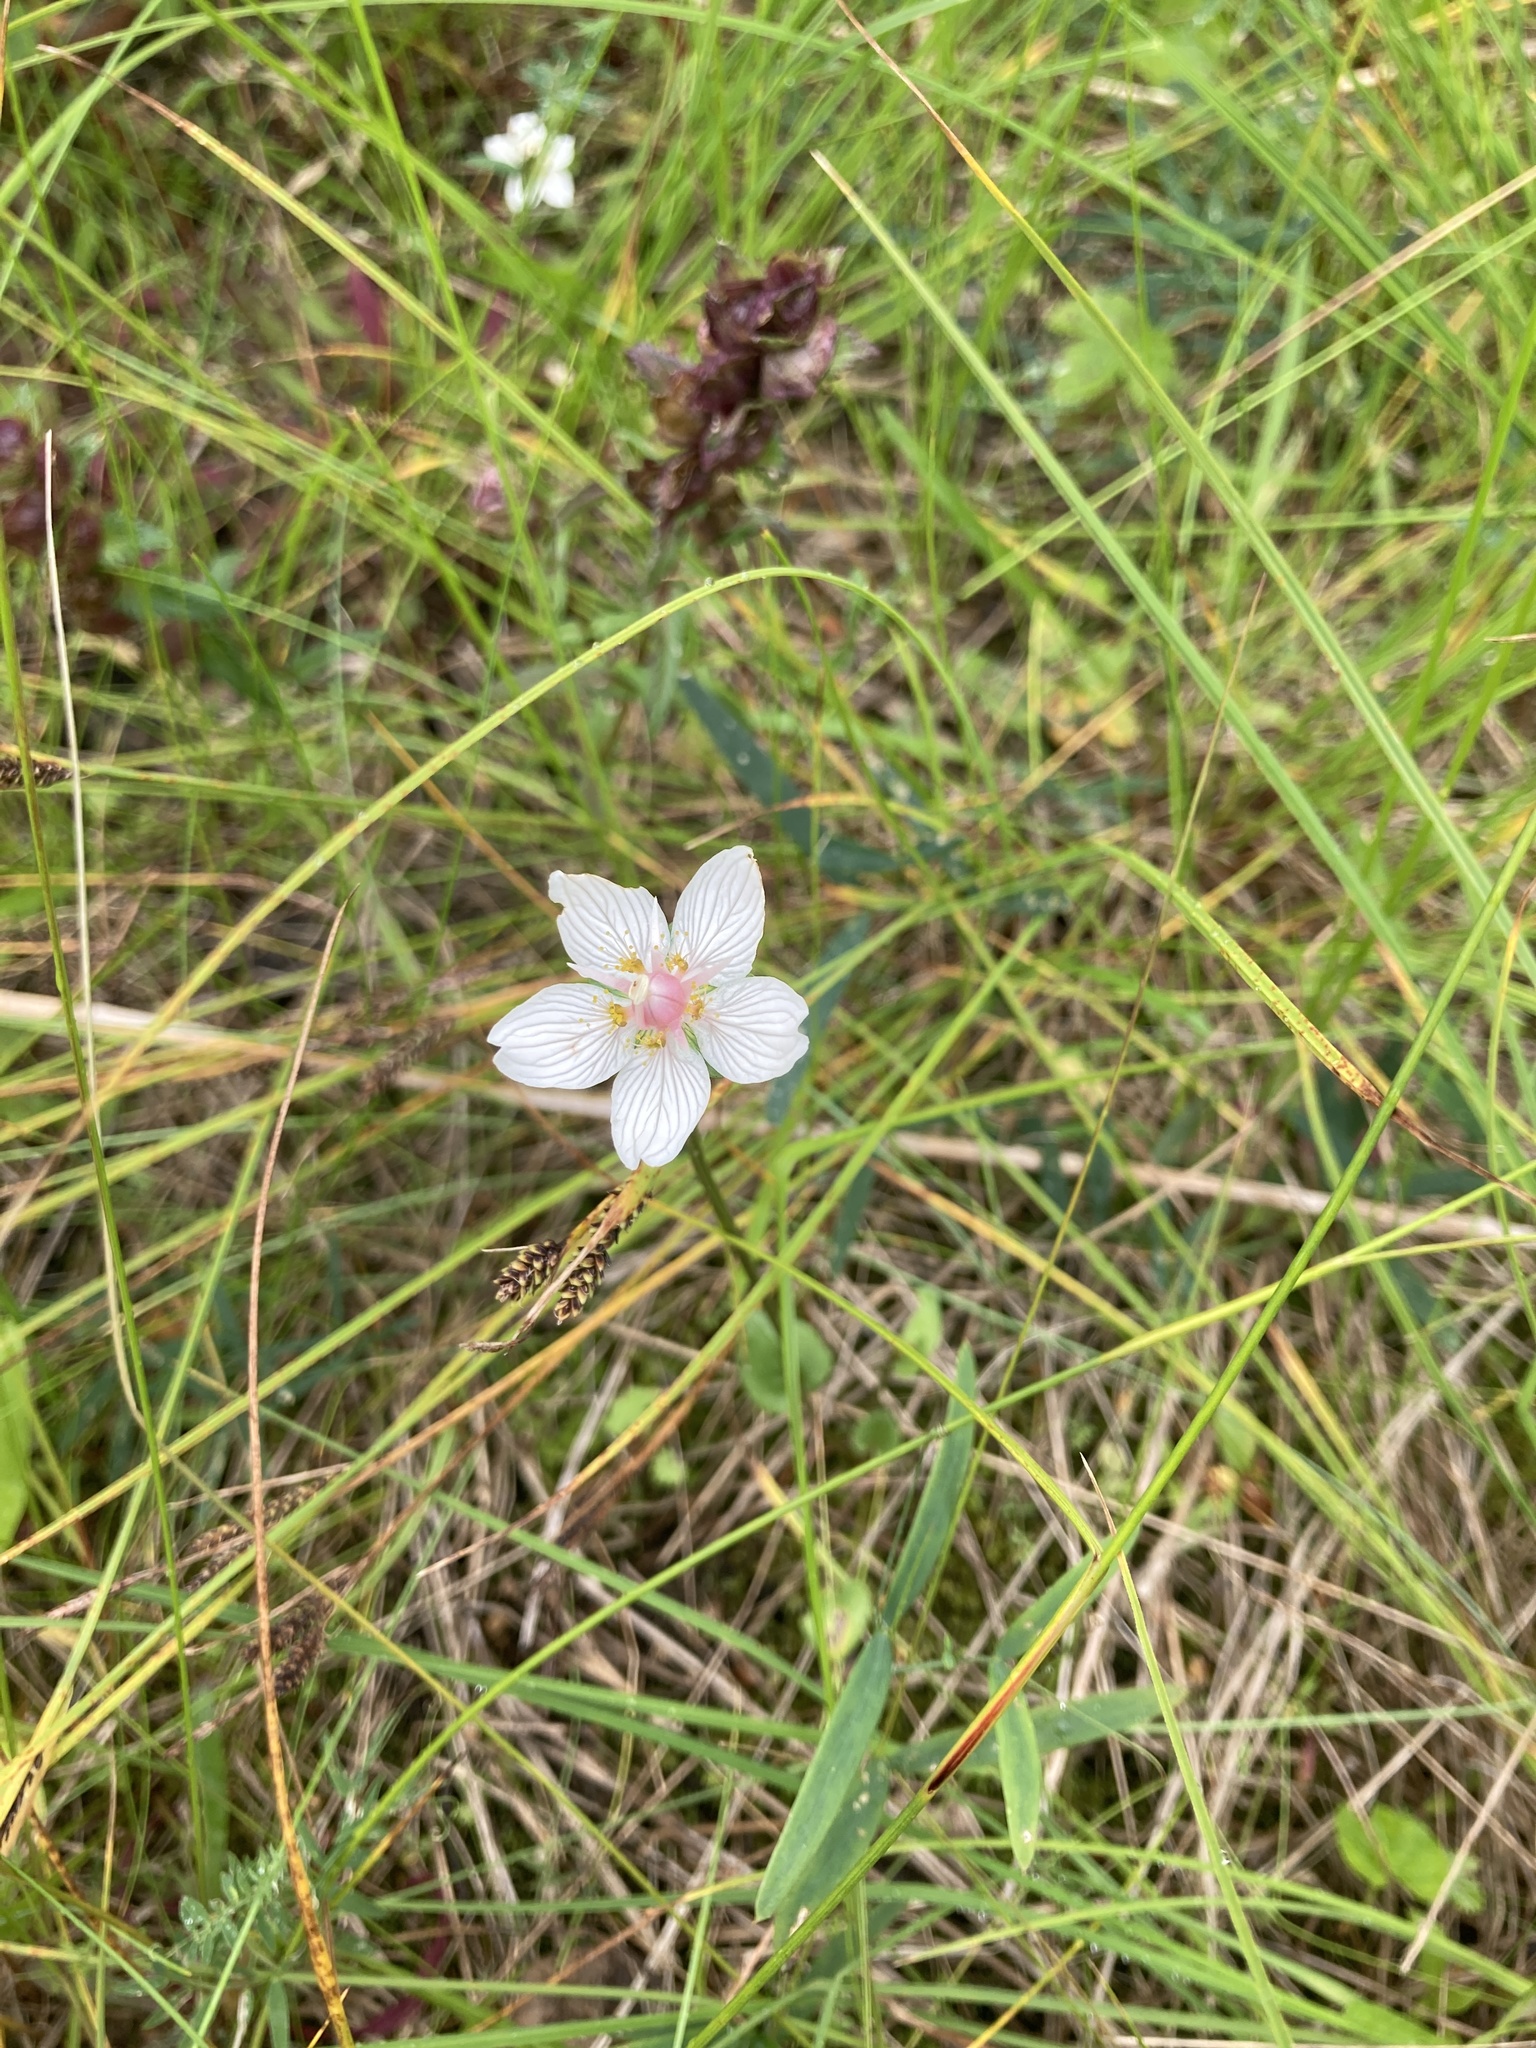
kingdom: Plantae
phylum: Tracheophyta
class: Magnoliopsida
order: Celastrales
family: Parnassiaceae
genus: Parnassia
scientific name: Parnassia palustris
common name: Grass-of-parnassus
